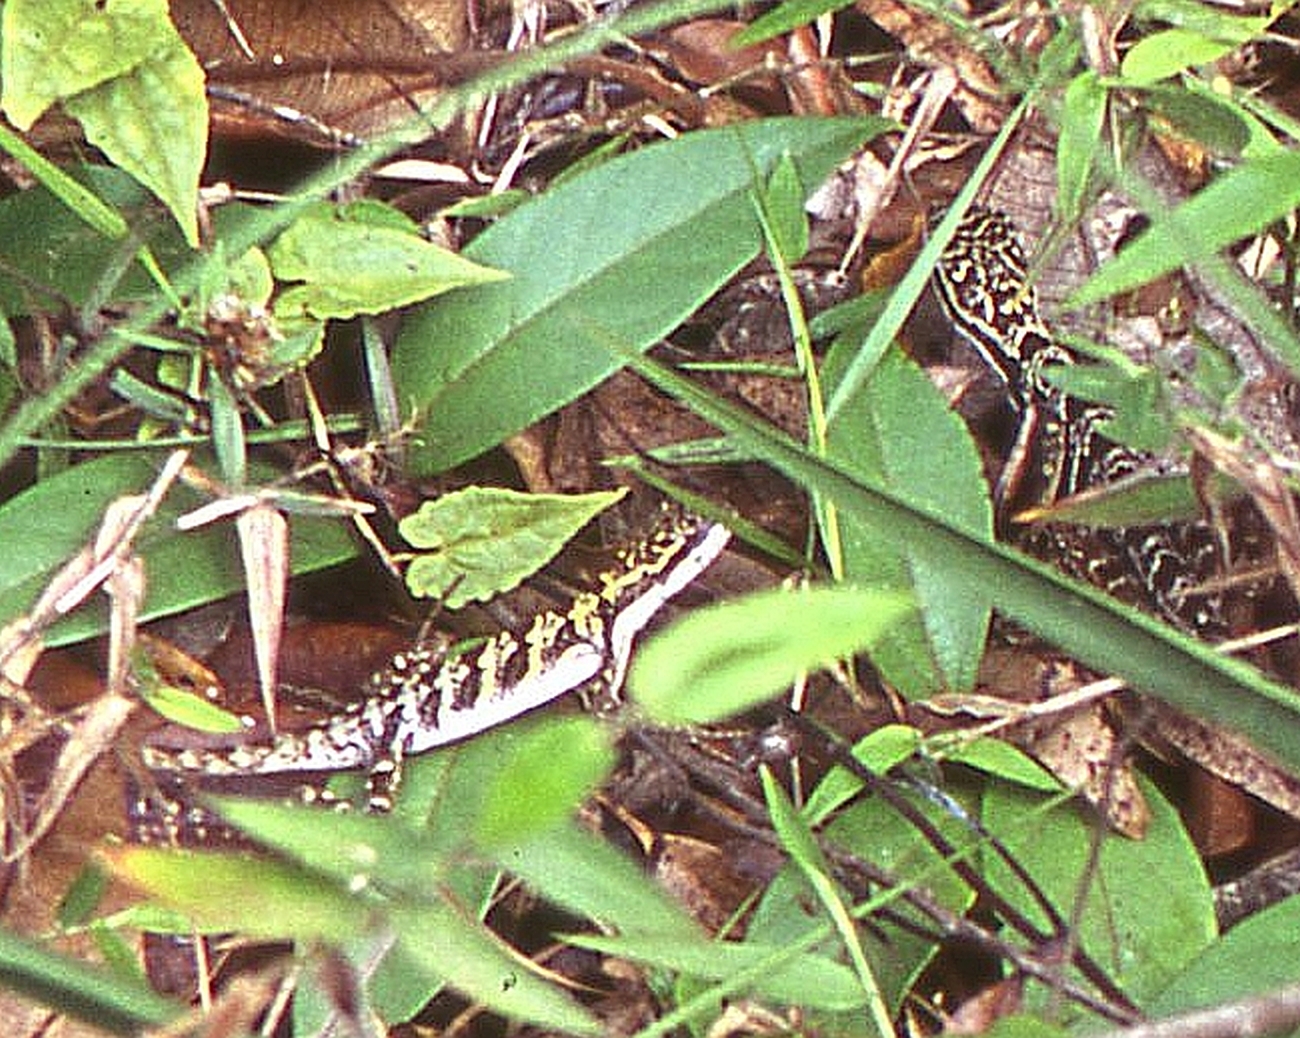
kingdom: Animalia
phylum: Chordata
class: Squamata
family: Leiosauridae
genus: Enyalius
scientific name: Enyalius bilineatus
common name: Two-lined fathead anole
